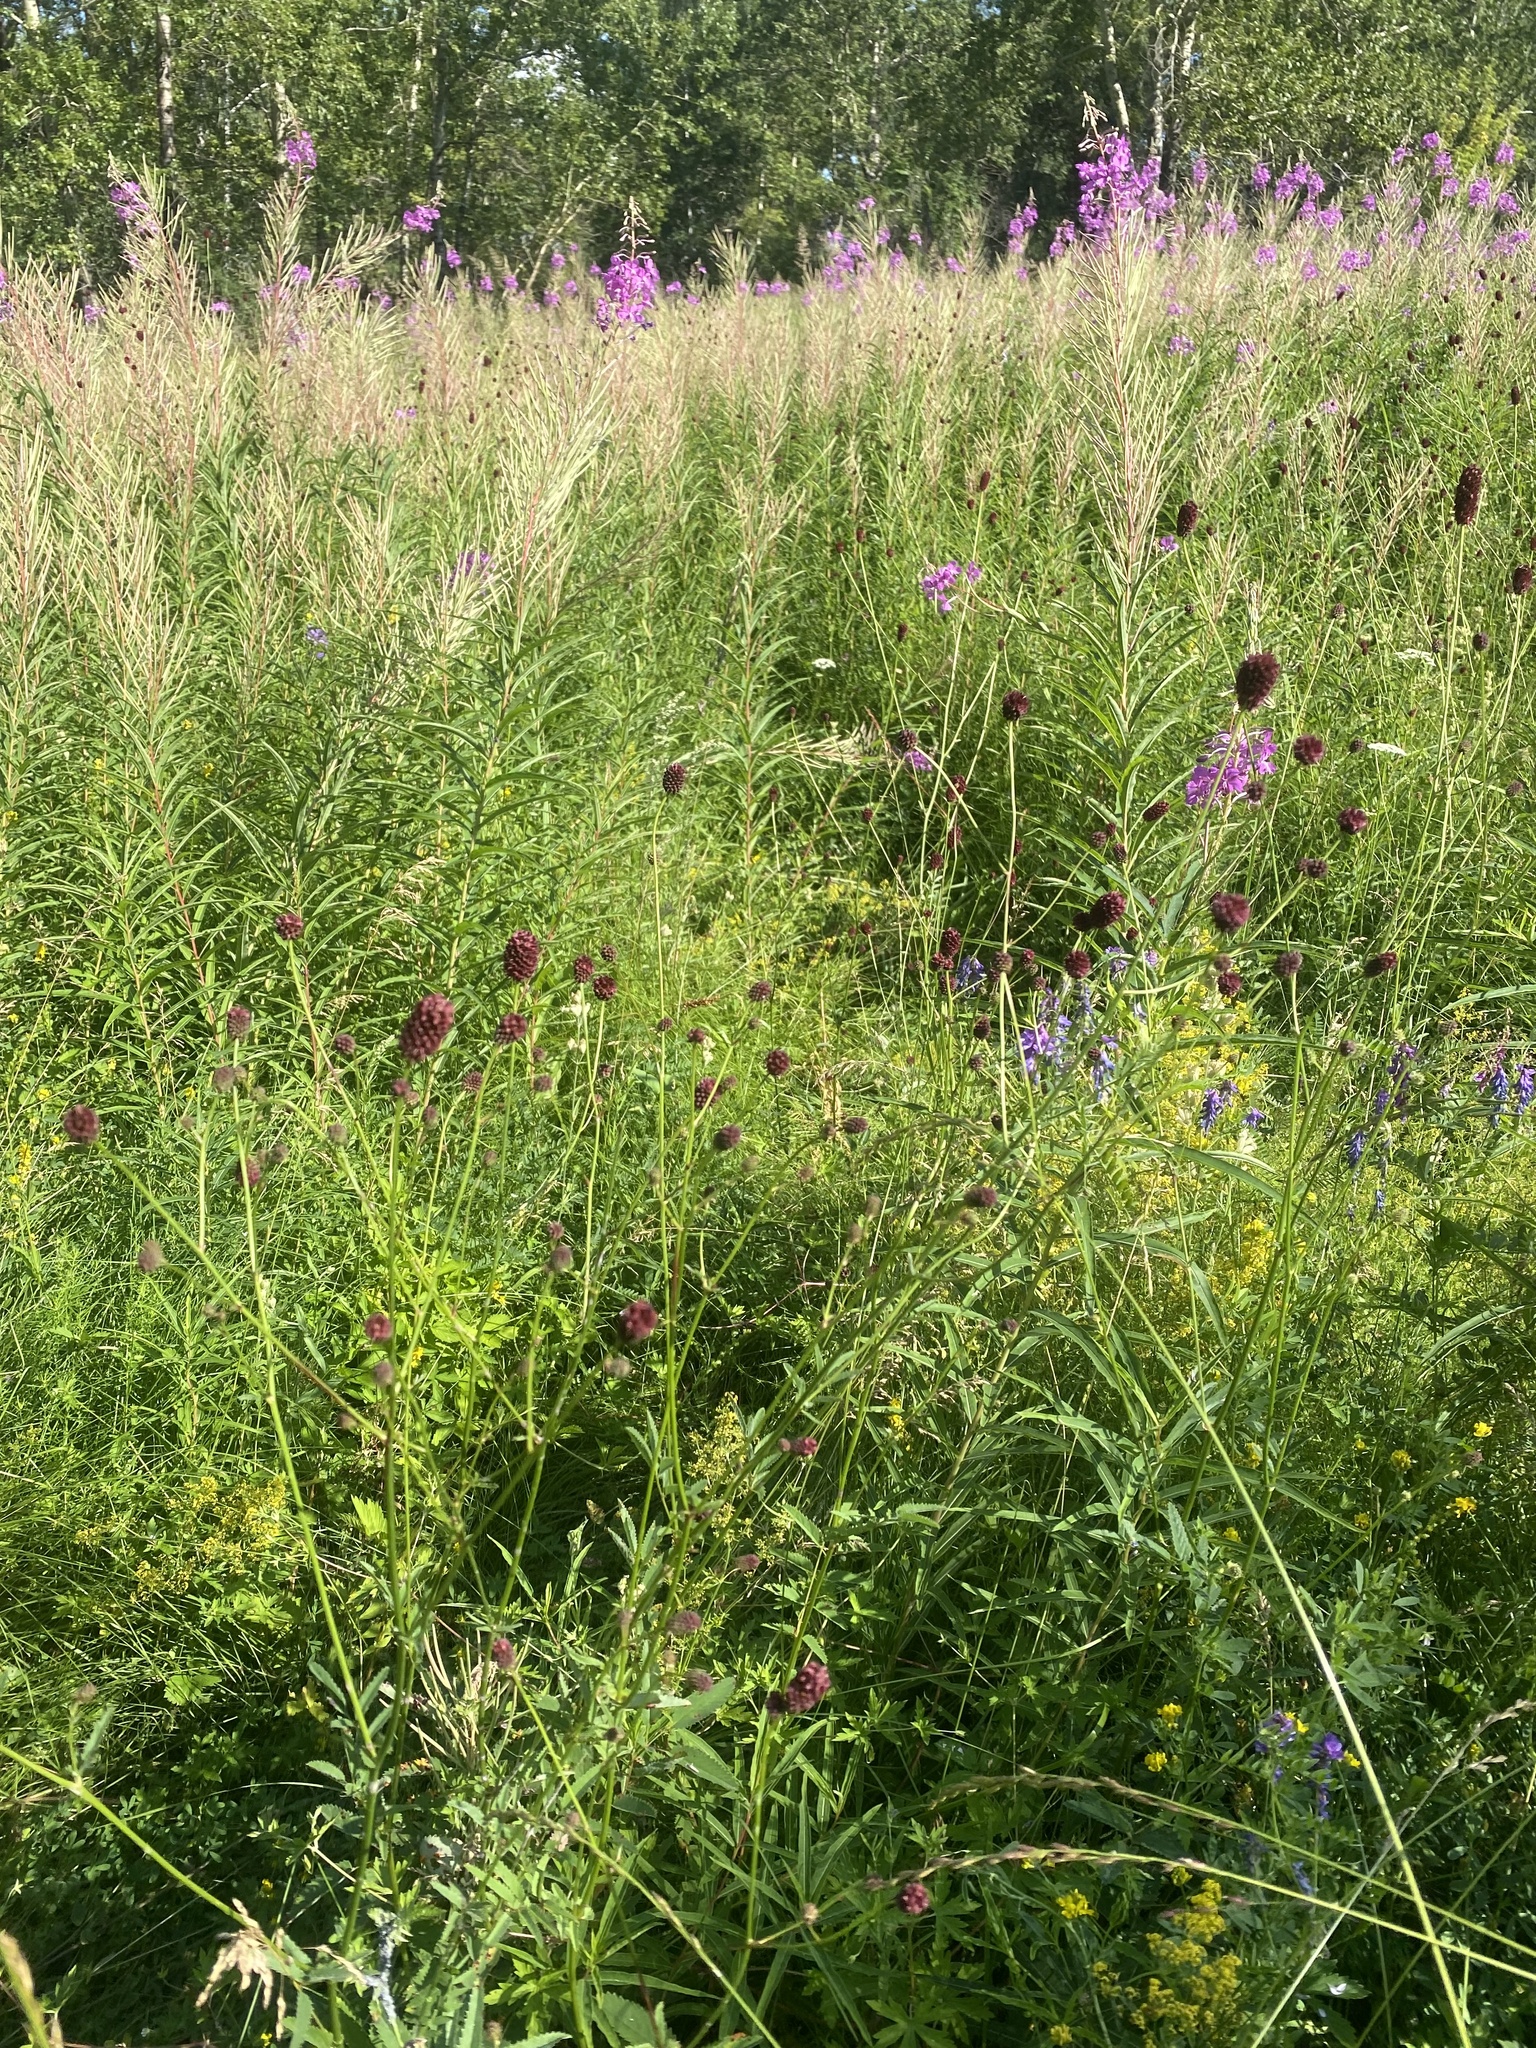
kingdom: Plantae
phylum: Tracheophyta
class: Magnoliopsida
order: Rosales
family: Rosaceae
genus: Sanguisorba
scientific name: Sanguisorba officinalis
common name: Great burnet
